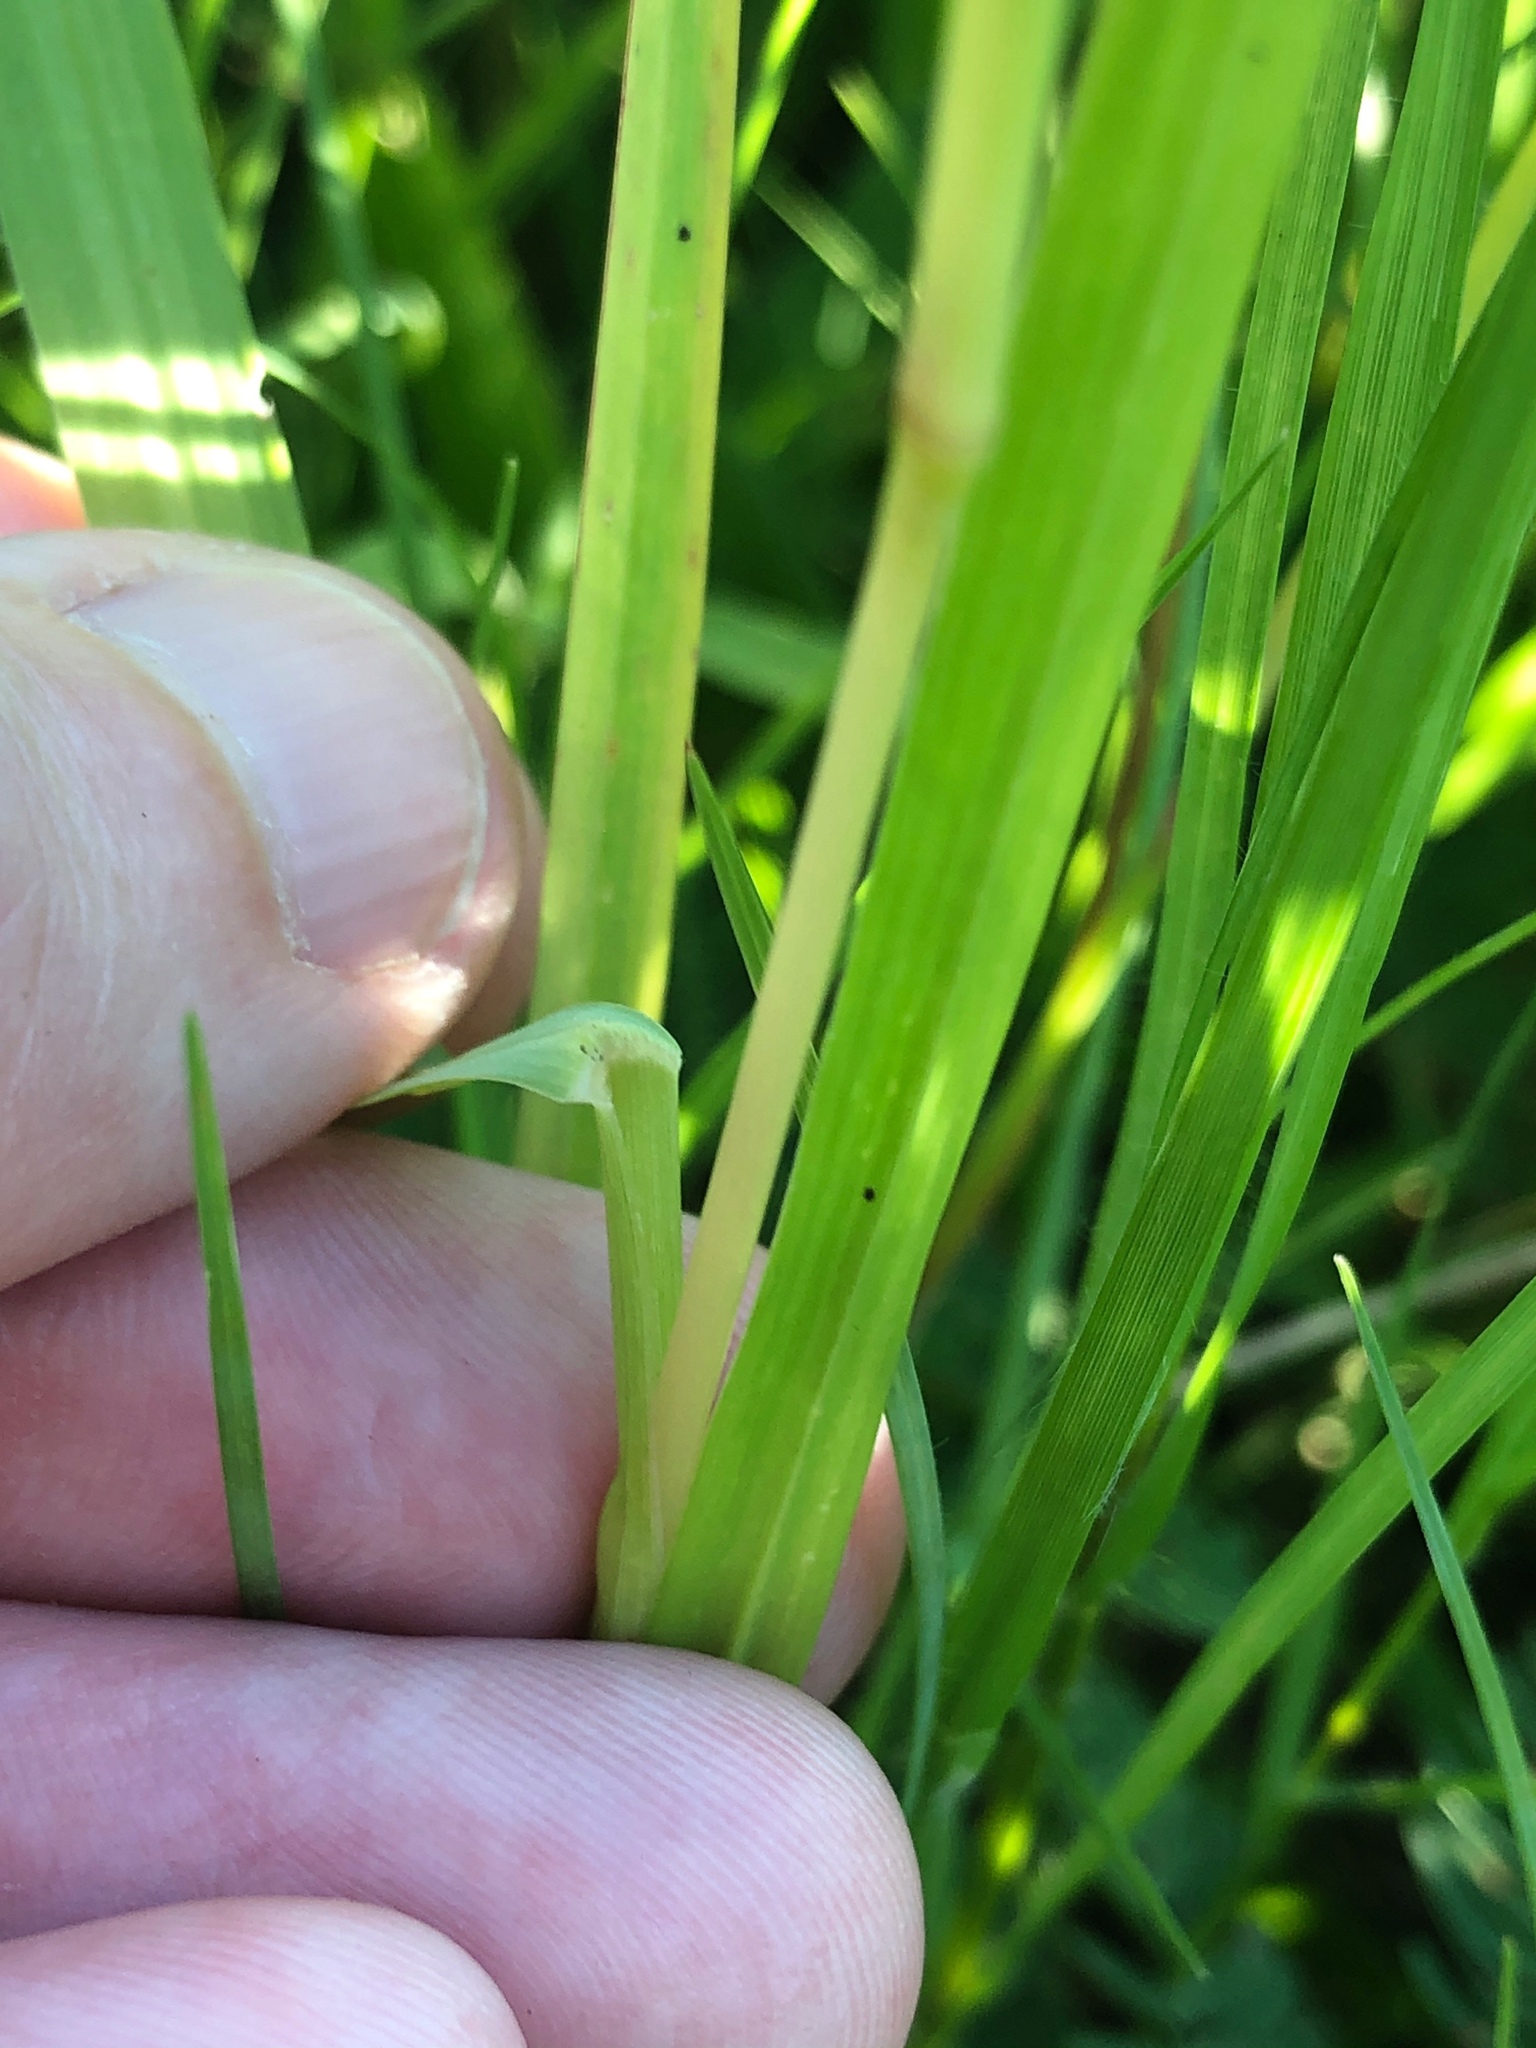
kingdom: Plantae
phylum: Tracheophyta
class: Liliopsida
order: Poales
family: Poaceae
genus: Setaria
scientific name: Setaria parviflora
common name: Knotroot bristle-grass
